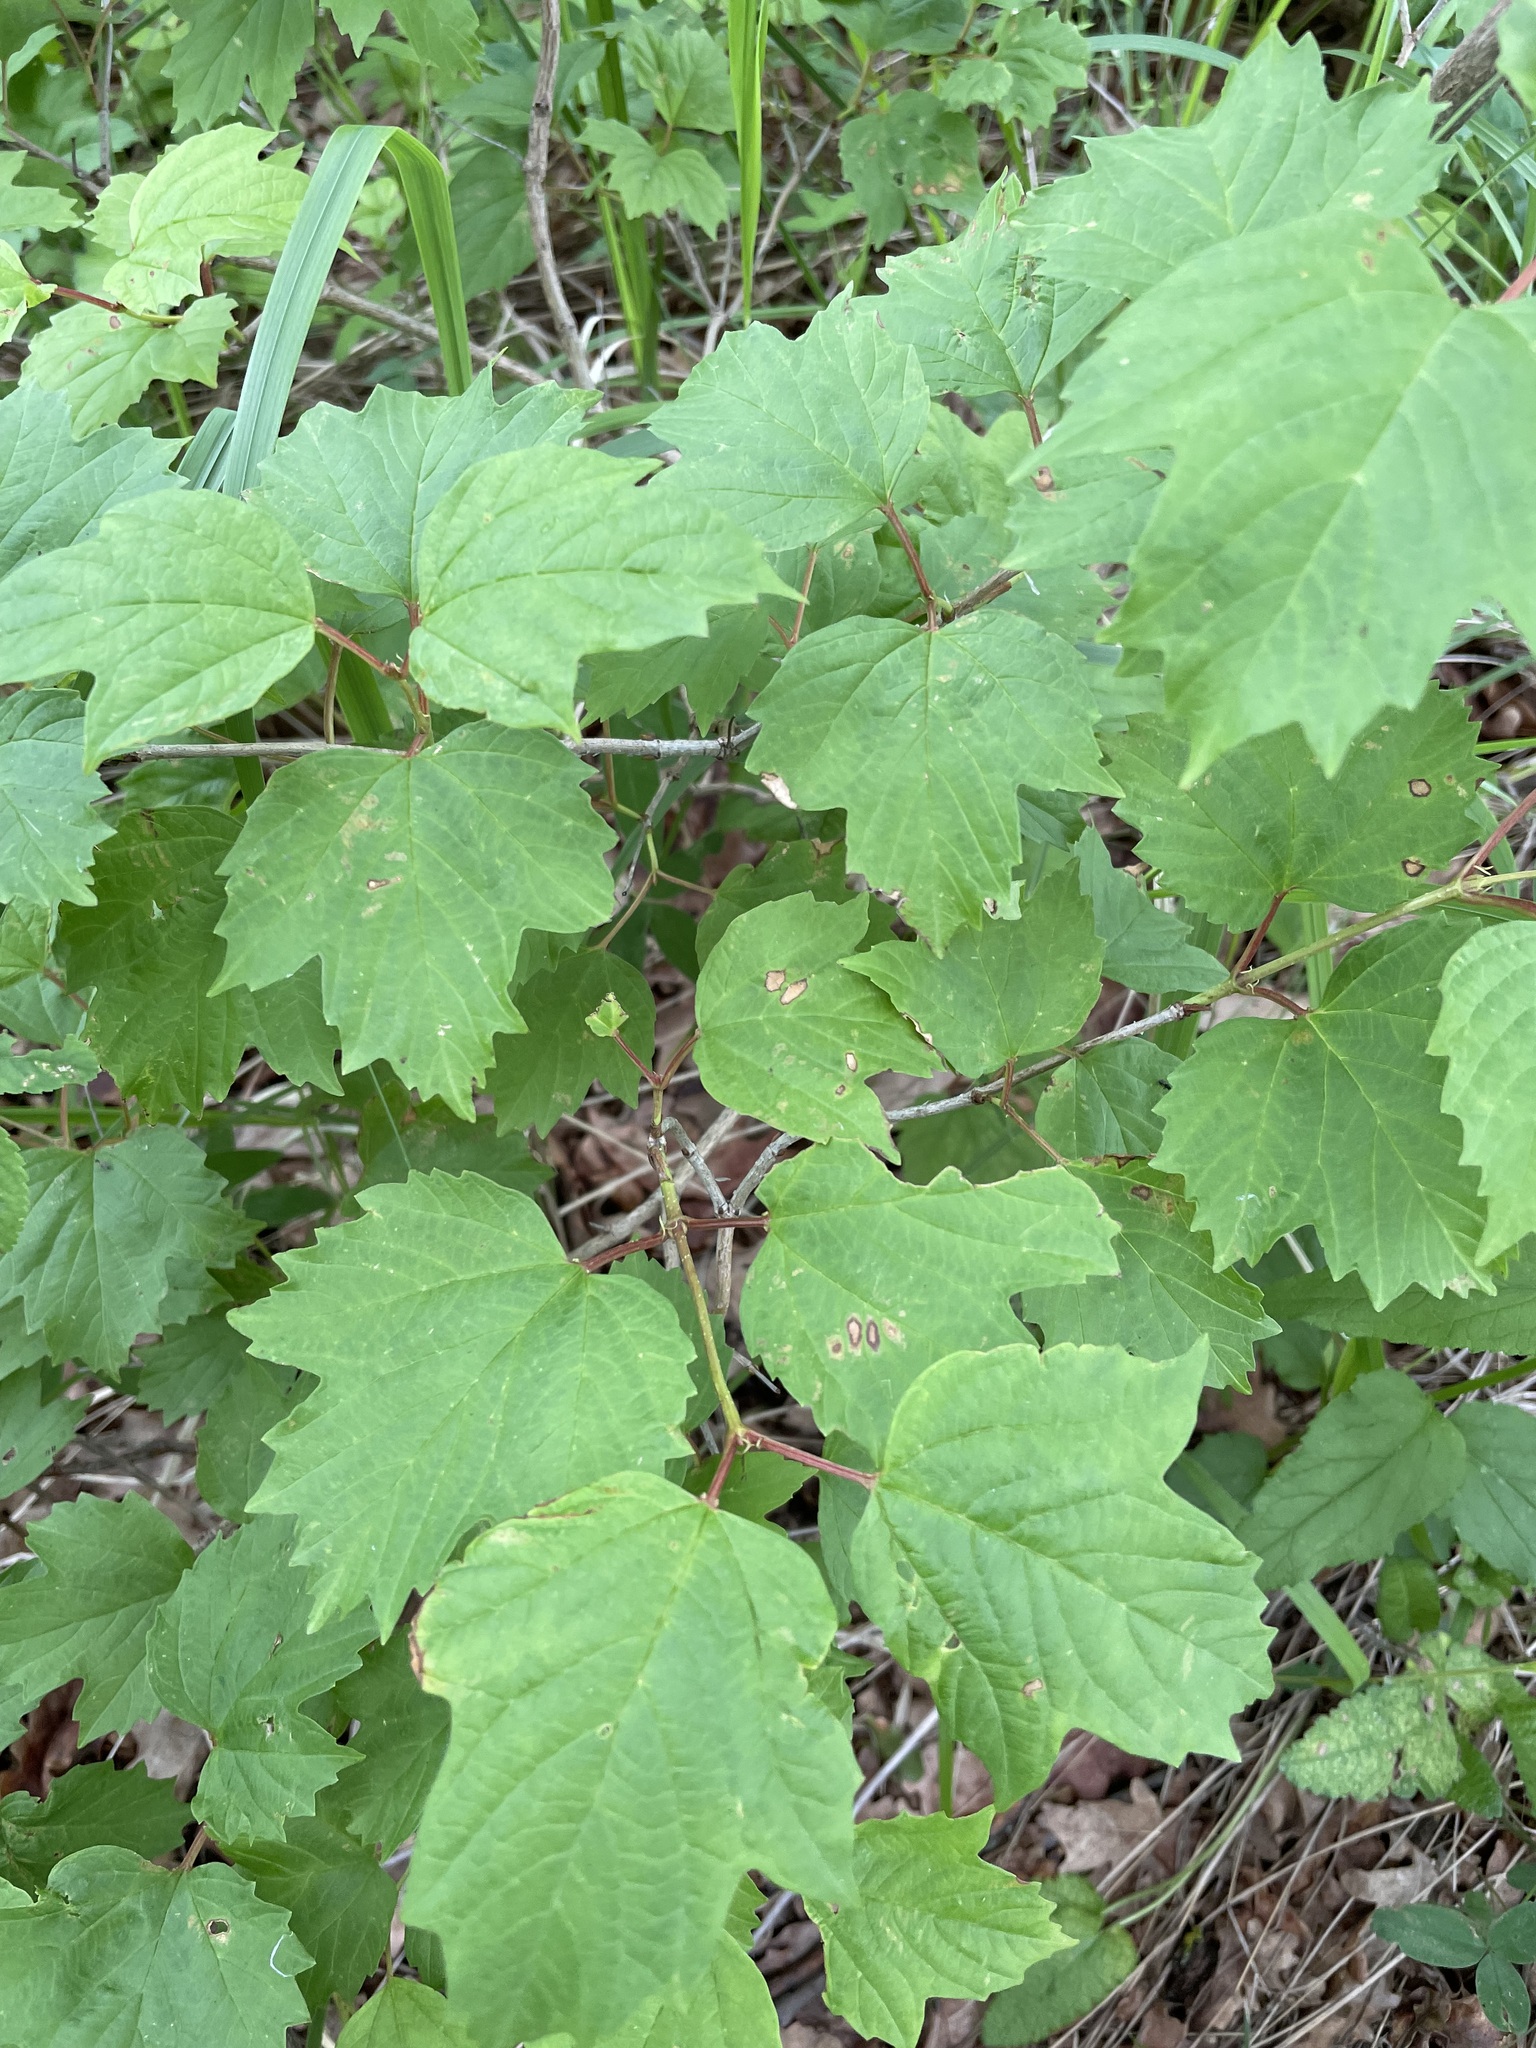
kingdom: Plantae
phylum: Tracheophyta
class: Magnoliopsida
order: Dipsacales
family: Viburnaceae
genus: Viburnum
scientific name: Viburnum opulus
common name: Guelder-rose
